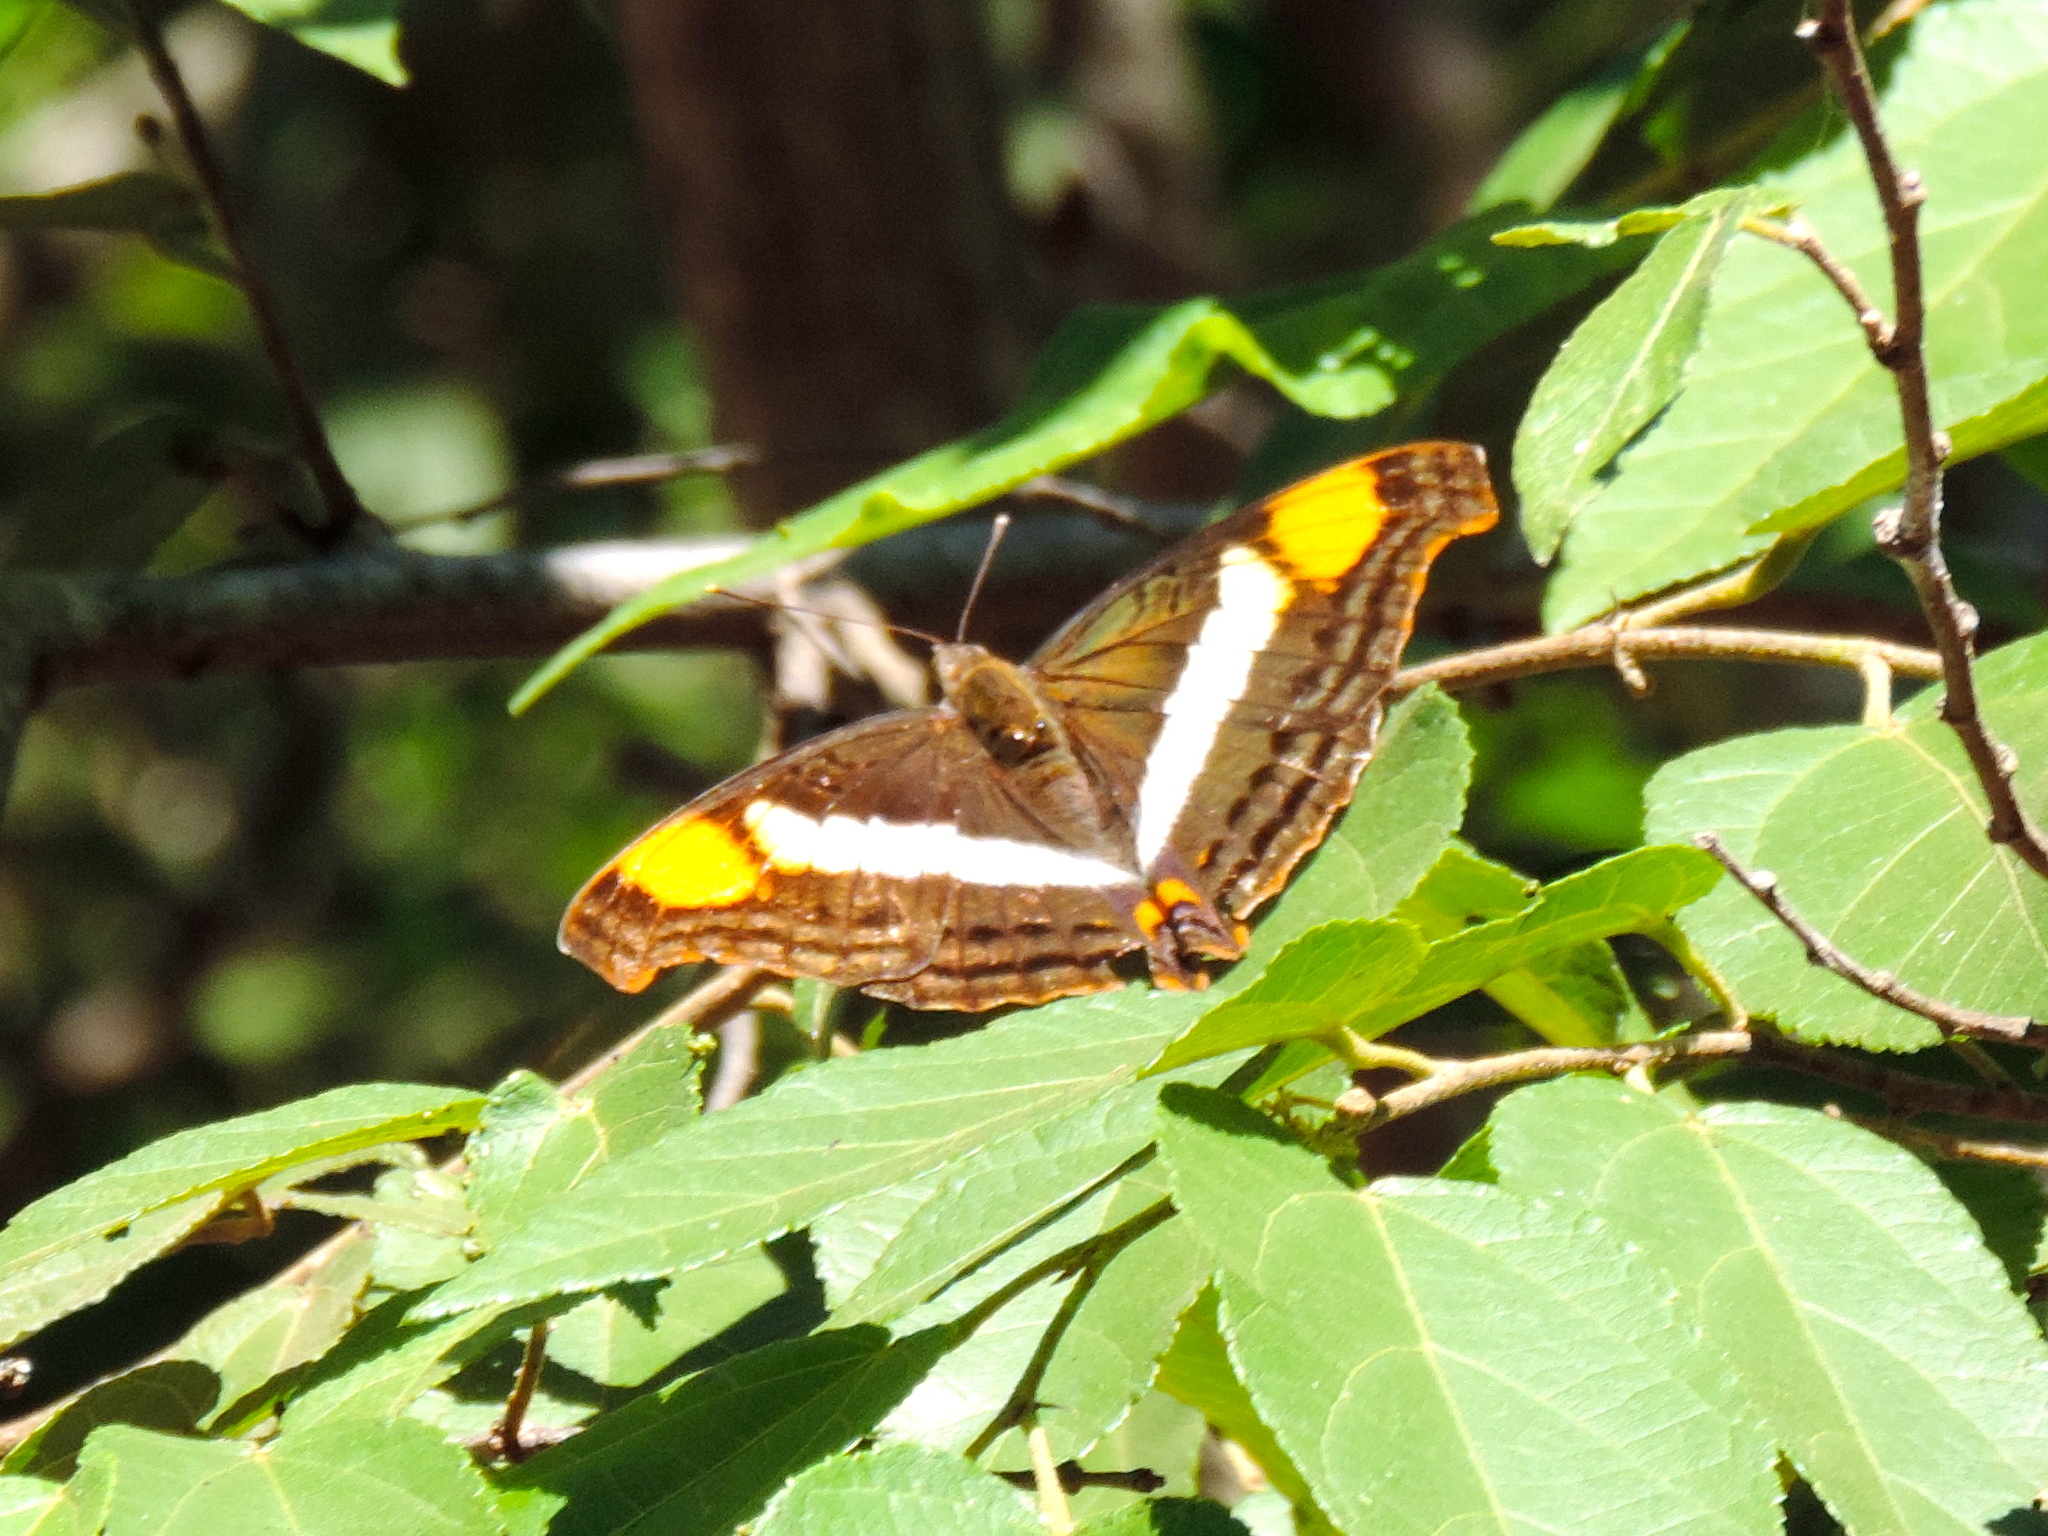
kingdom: Animalia
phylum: Arthropoda
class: Insecta
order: Lepidoptera
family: Nymphalidae
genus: Doxocopa
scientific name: Doxocopa laure
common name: Silver emperor
